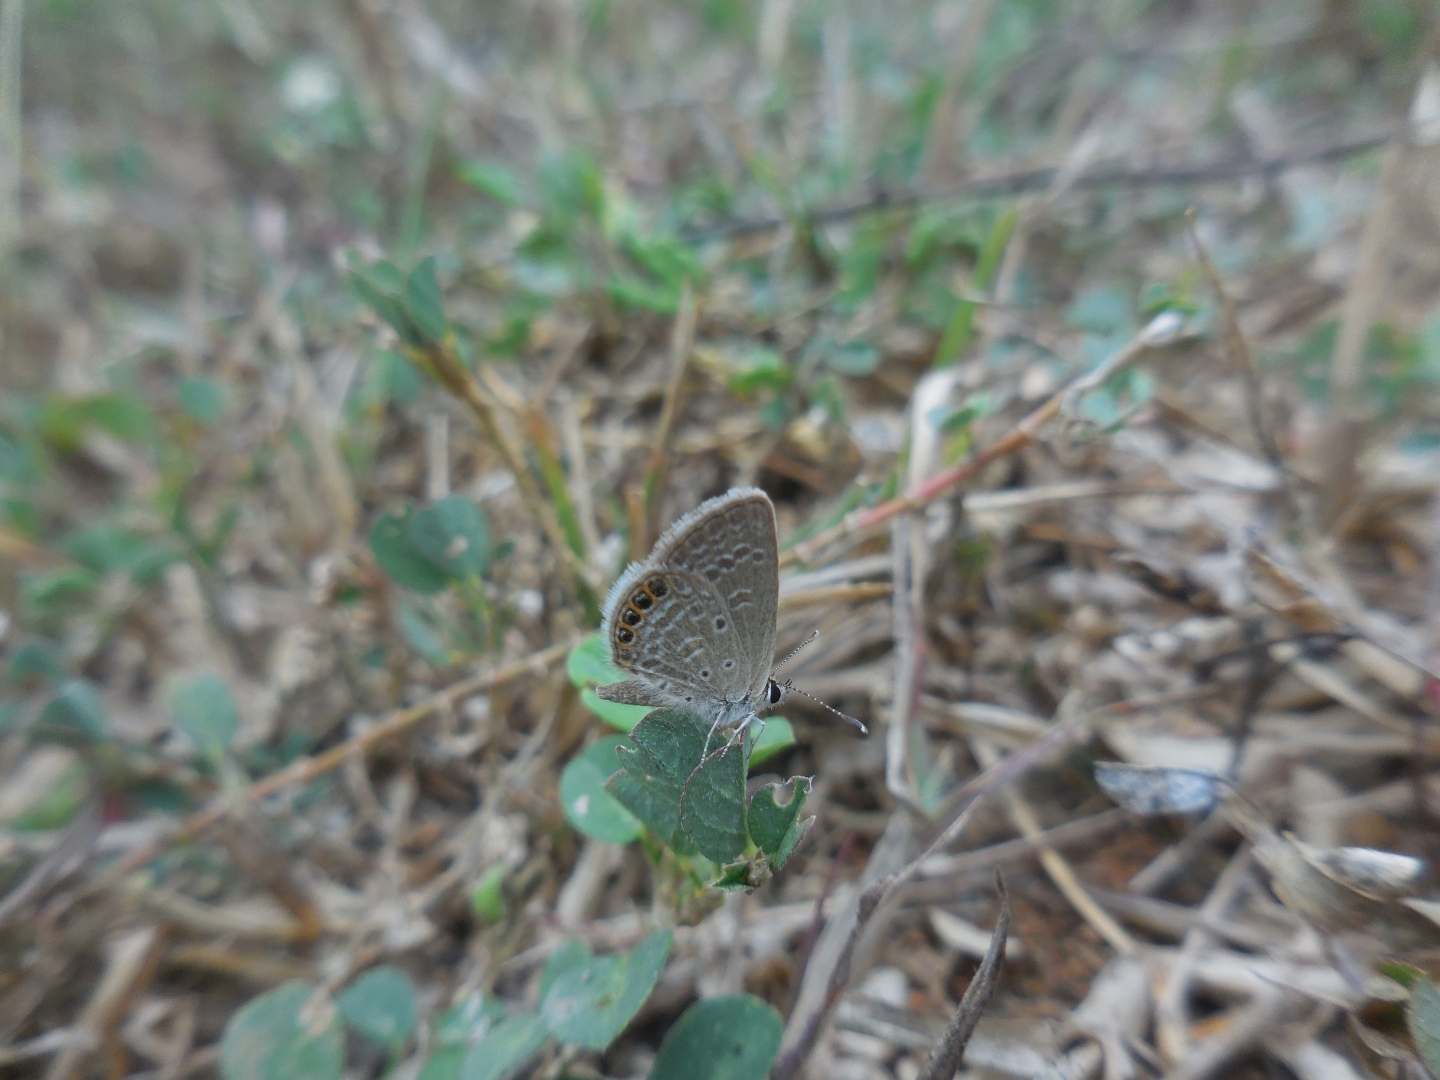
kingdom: Animalia
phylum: Arthropoda
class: Insecta
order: Lepidoptera
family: Lycaenidae
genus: Freyeria
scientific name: Freyeria putli
